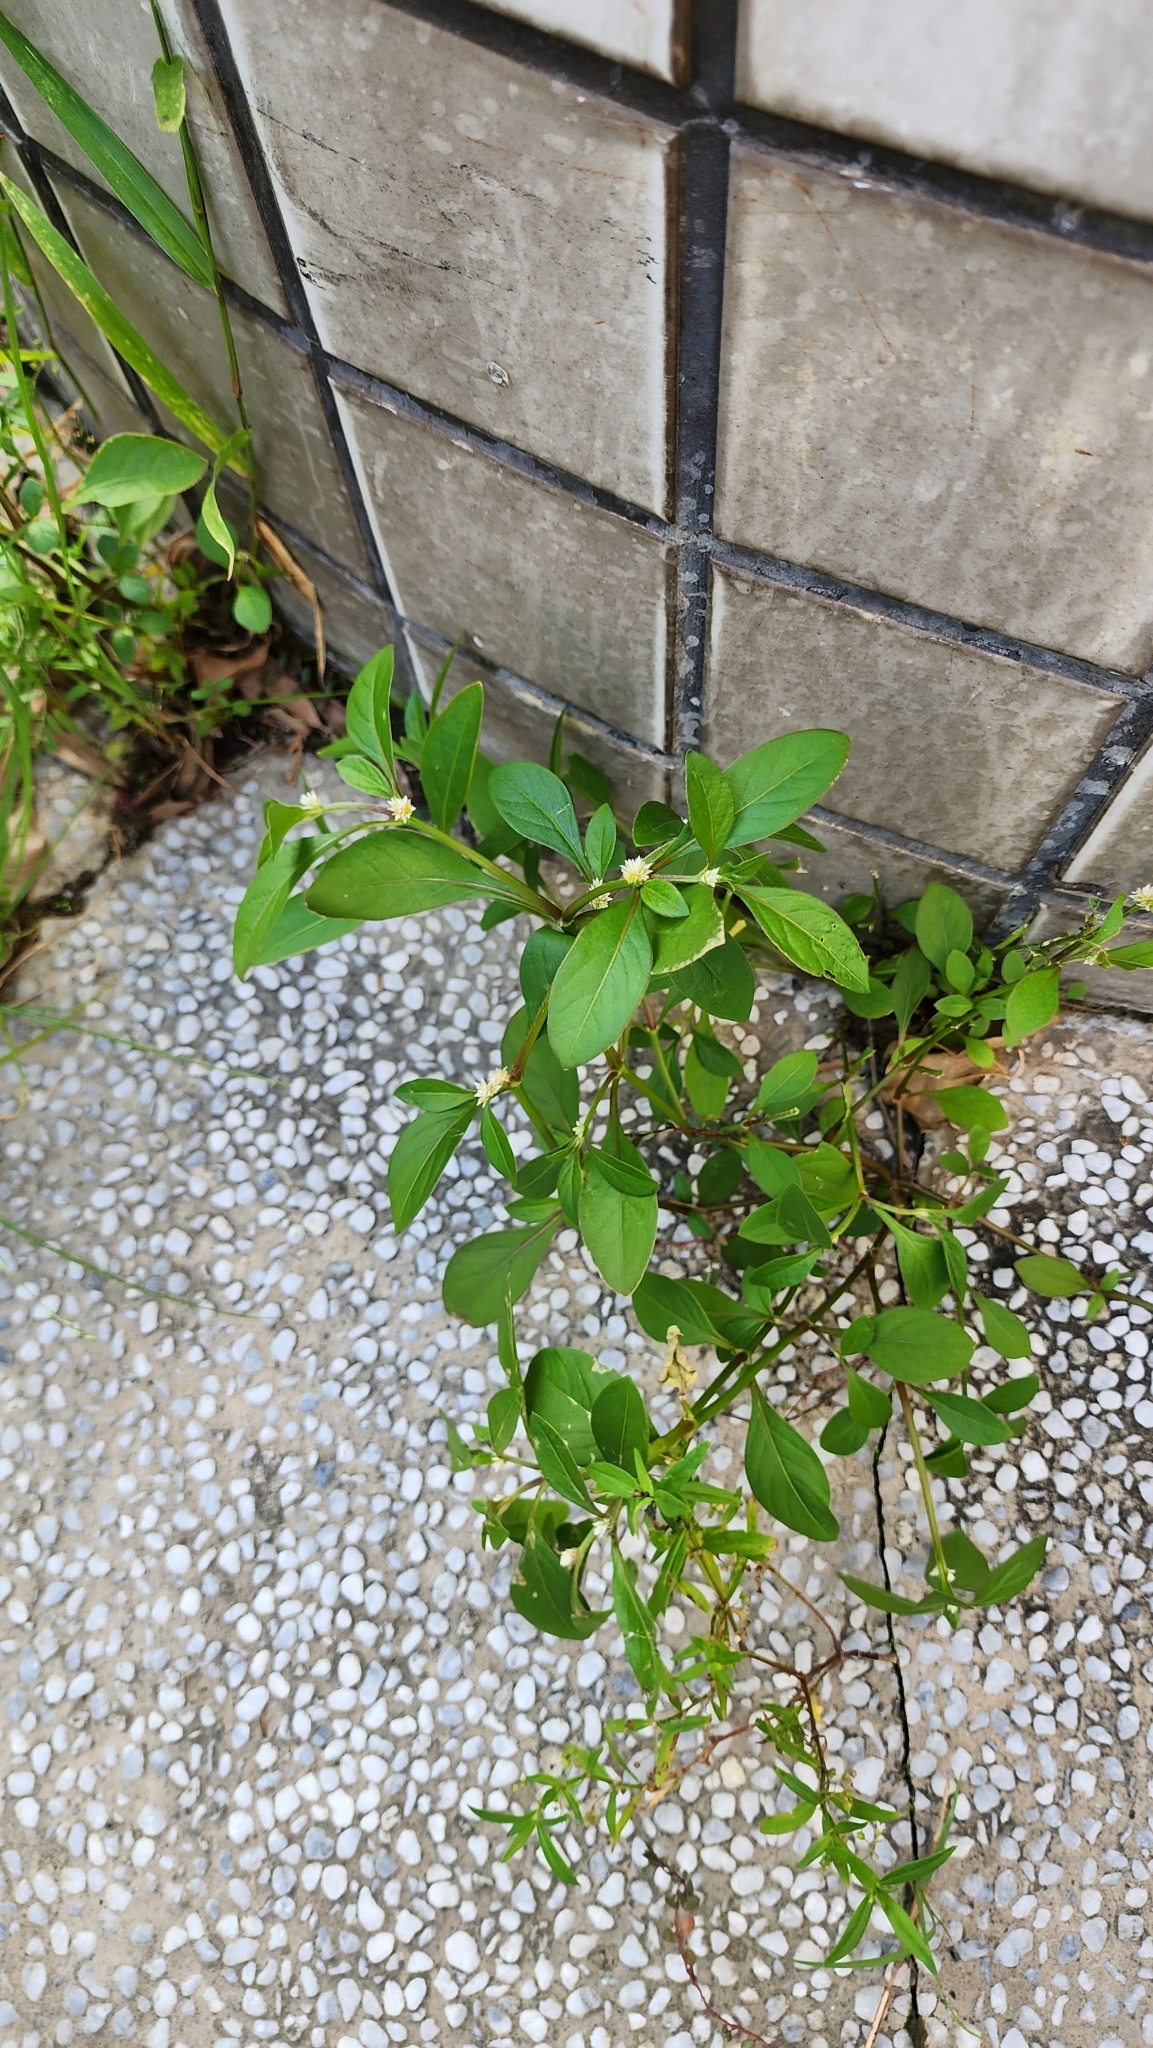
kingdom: Plantae
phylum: Tracheophyta
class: Magnoliopsida
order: Caryophyllales
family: Amaranthaceae
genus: Alternanthera
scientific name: Alternanthera ficoidea
